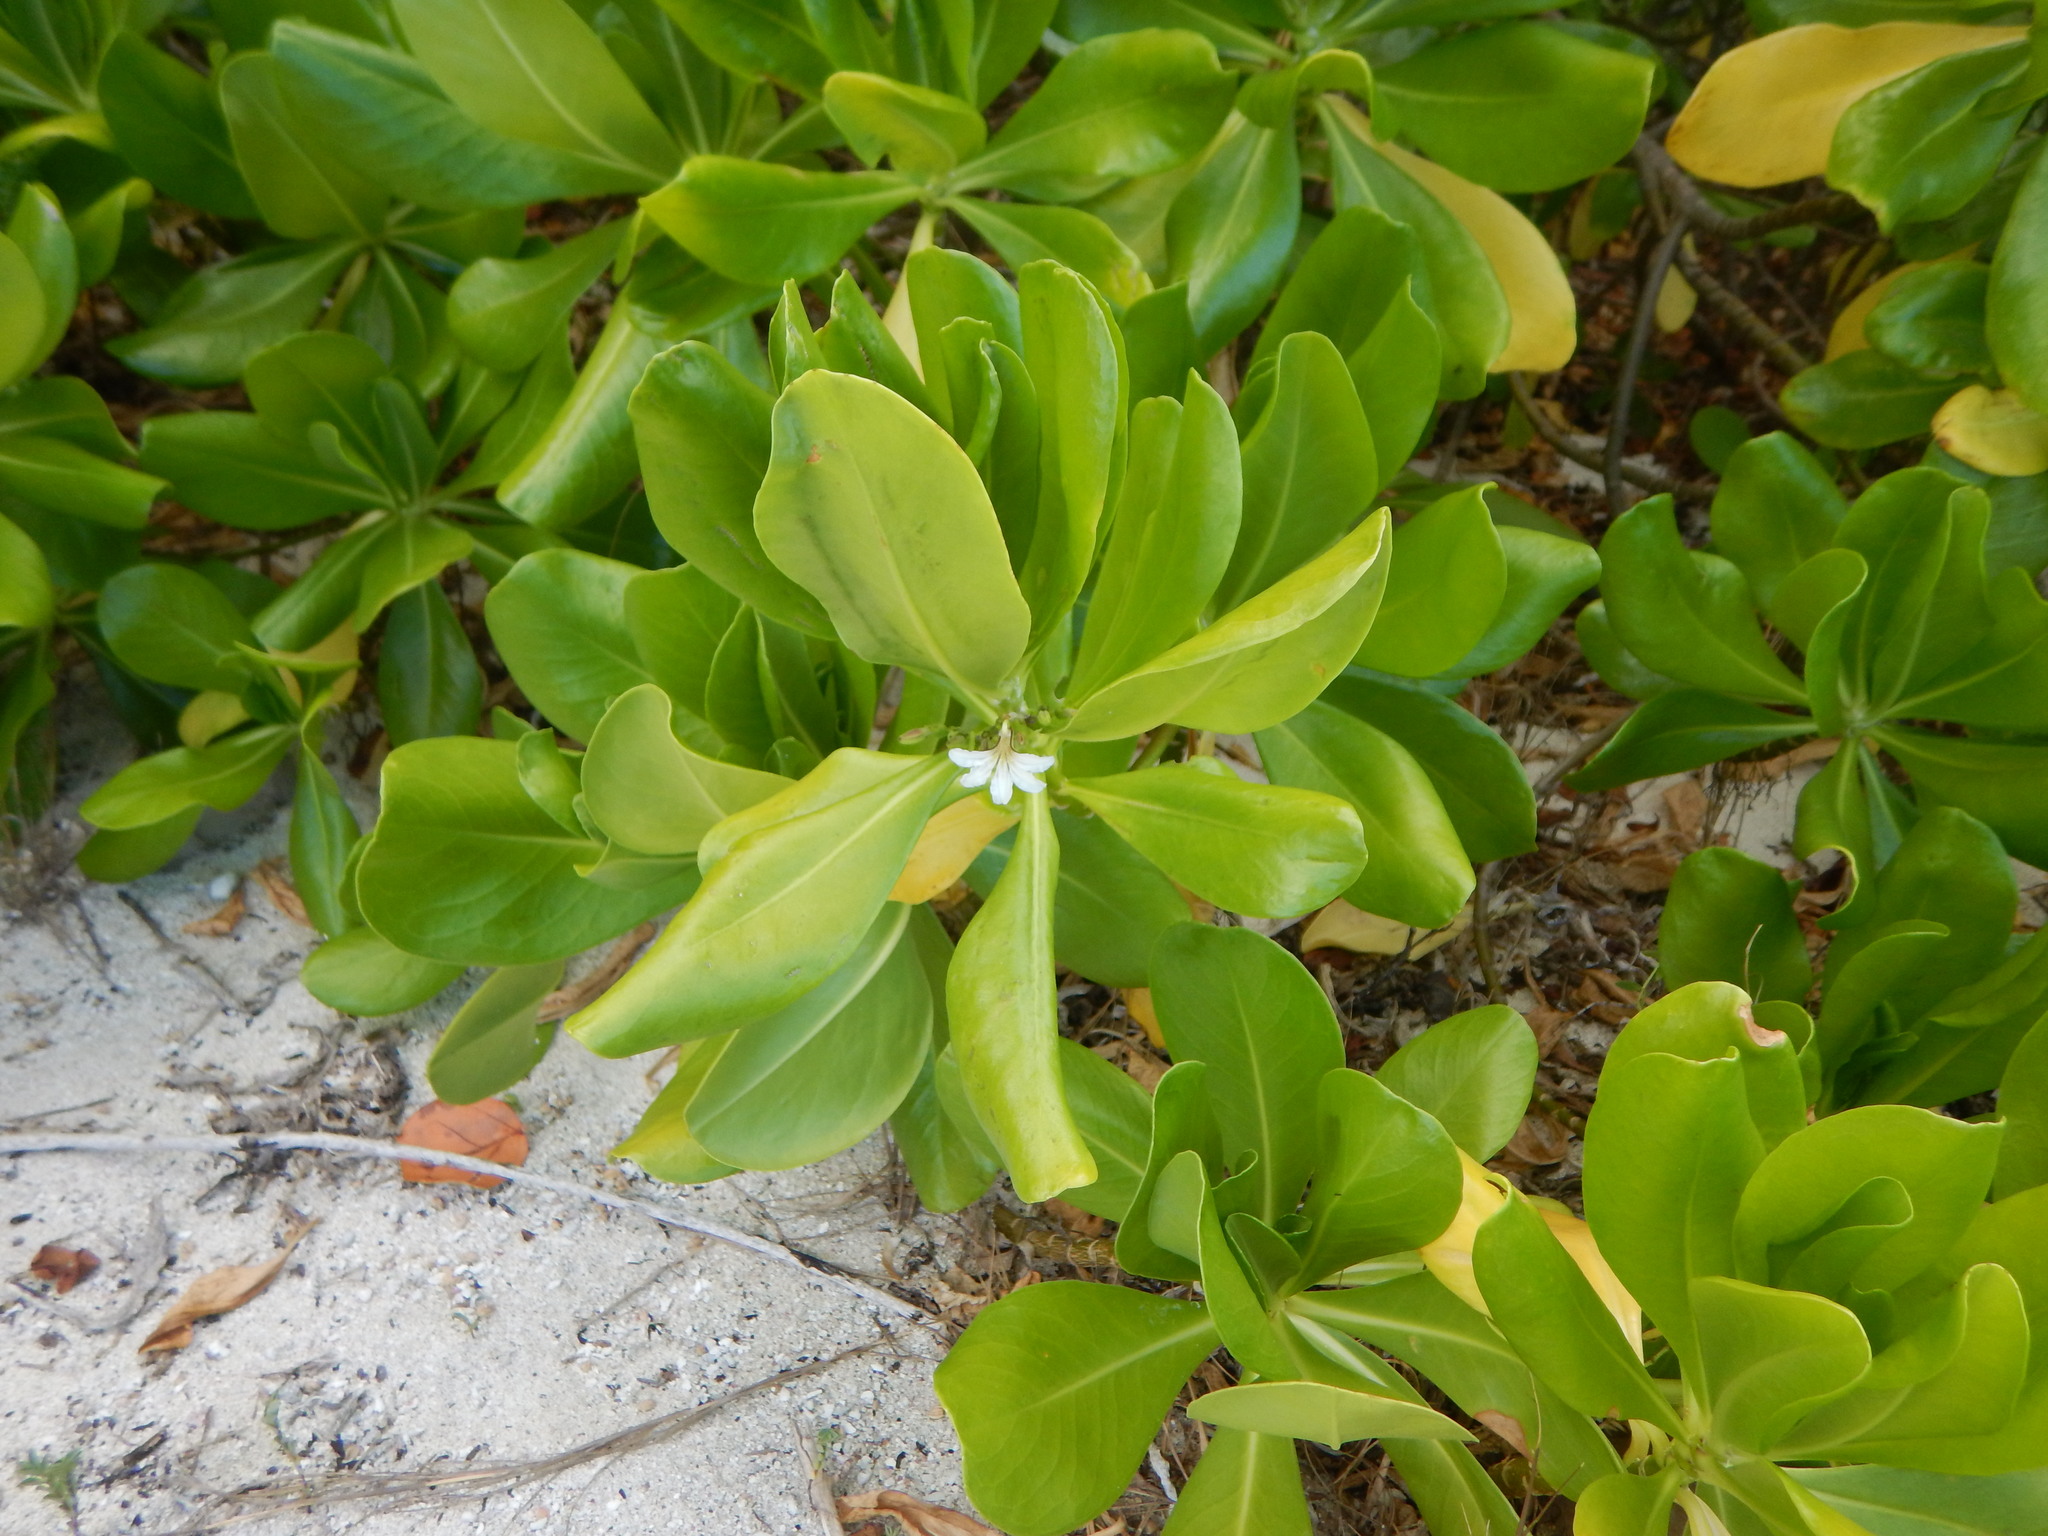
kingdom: Plantae
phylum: Tracheophyta
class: Magnoliopsida
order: Asterales
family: Goodeniaceae
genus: Scaevola
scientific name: Scaevola taccada
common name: Sea lettucetree
